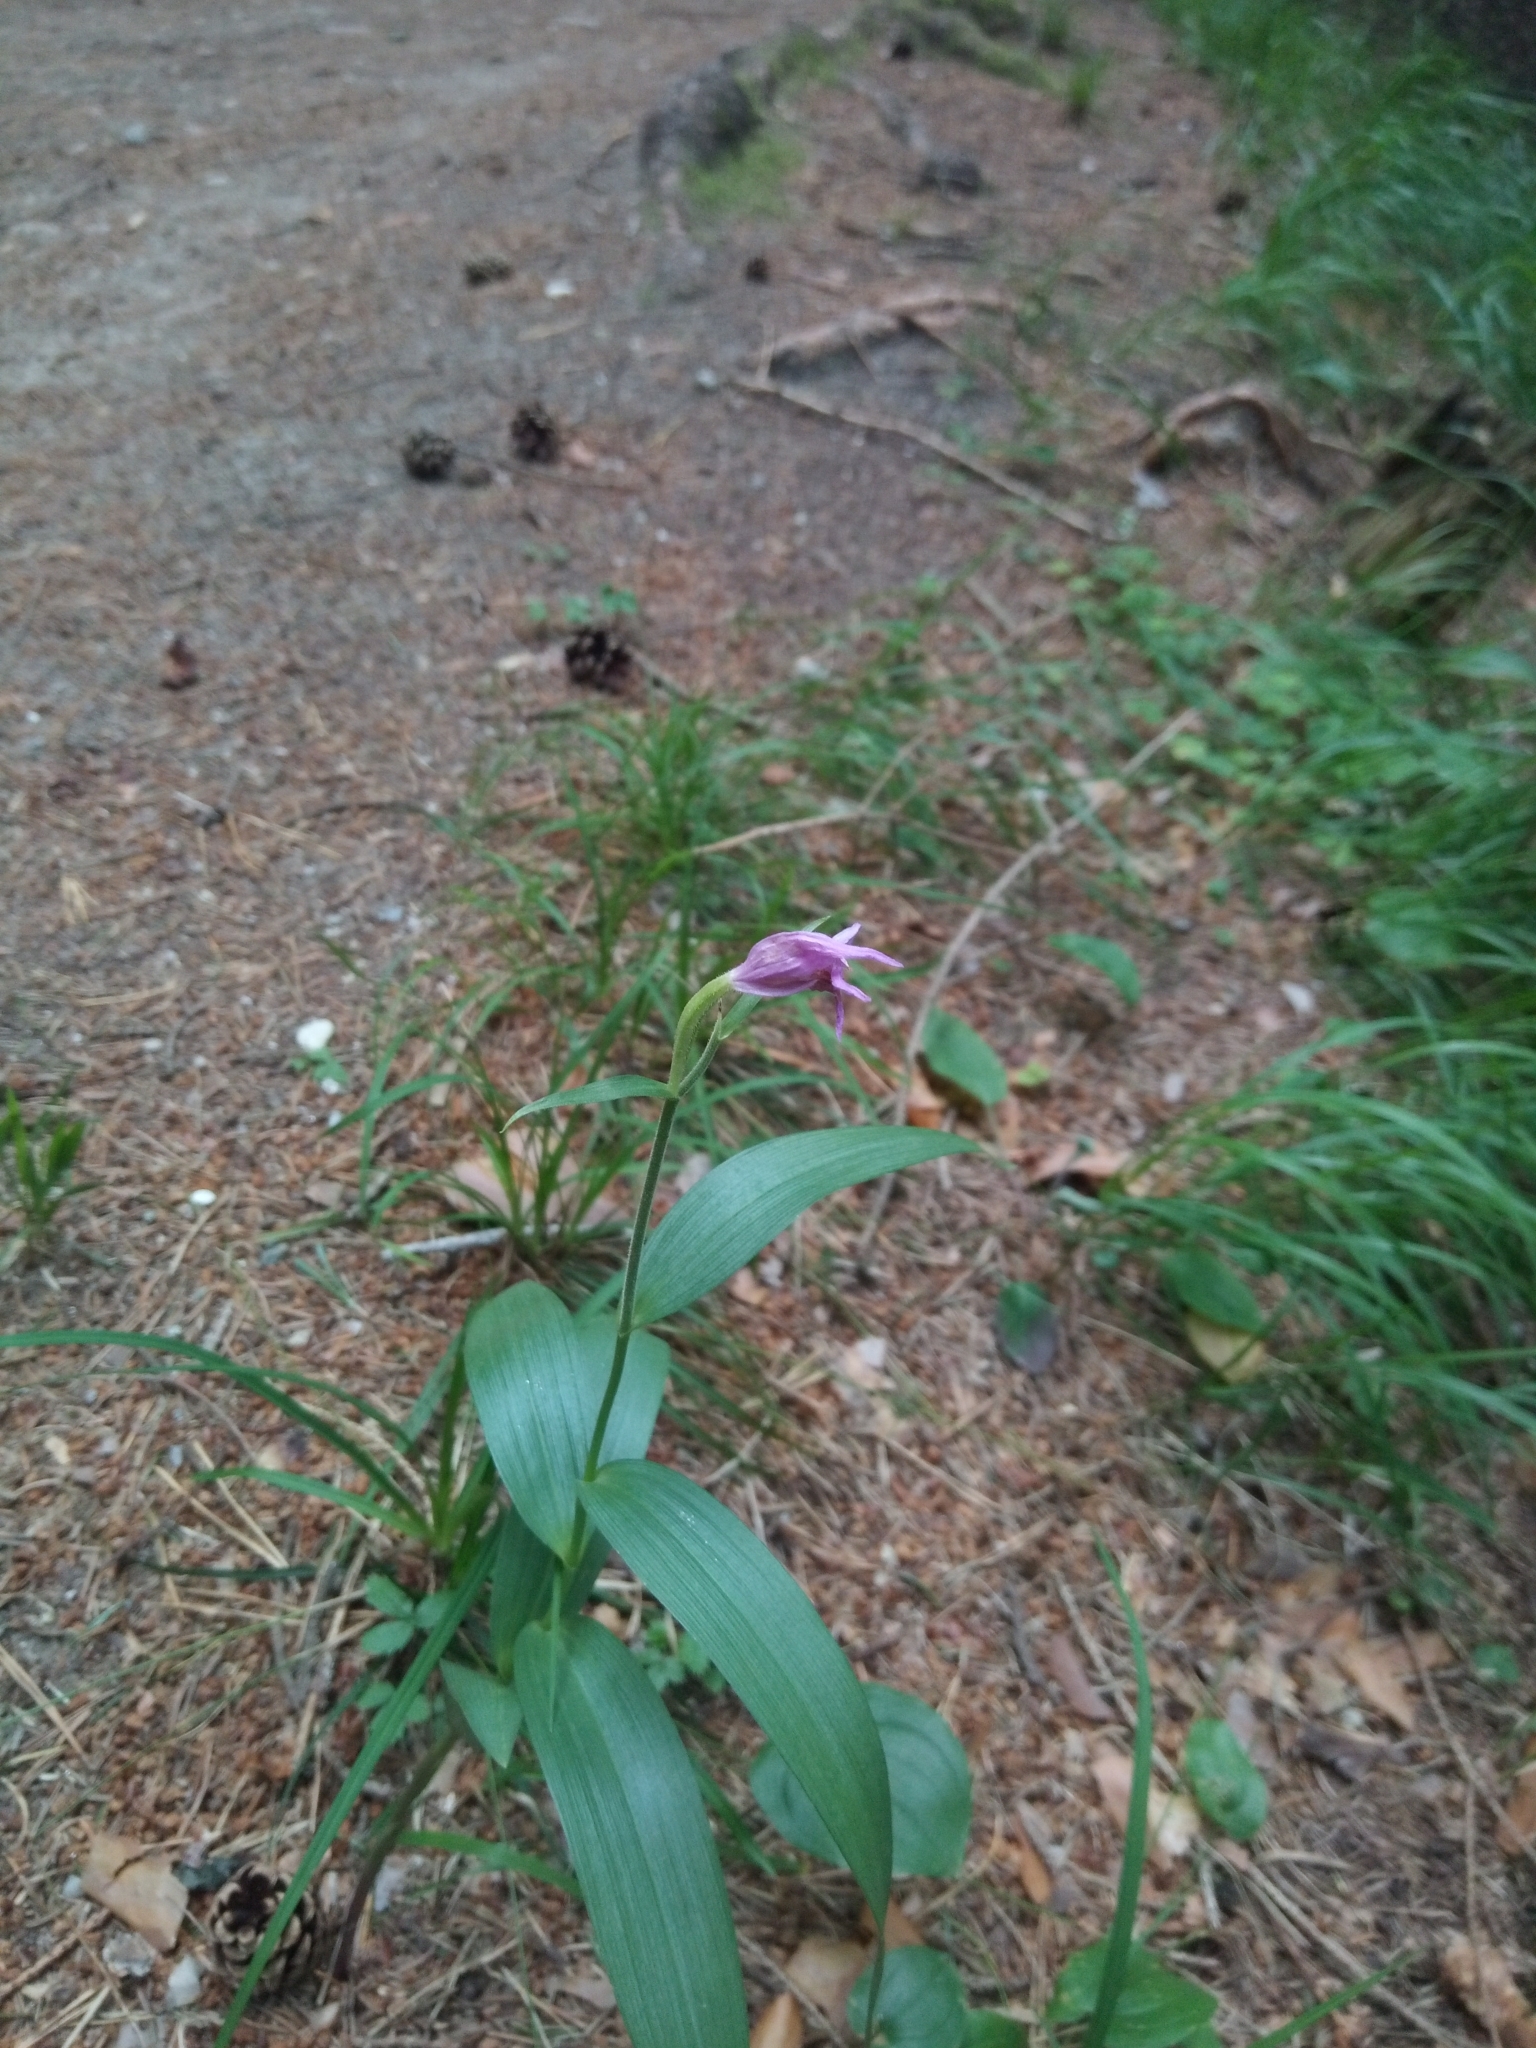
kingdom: Plantae
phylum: Tracheophyta
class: Liliopsida
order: Asparagales
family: Orchidaceae
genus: Cephalanthera
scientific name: Cephalanthera rubra
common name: Red helleborine
